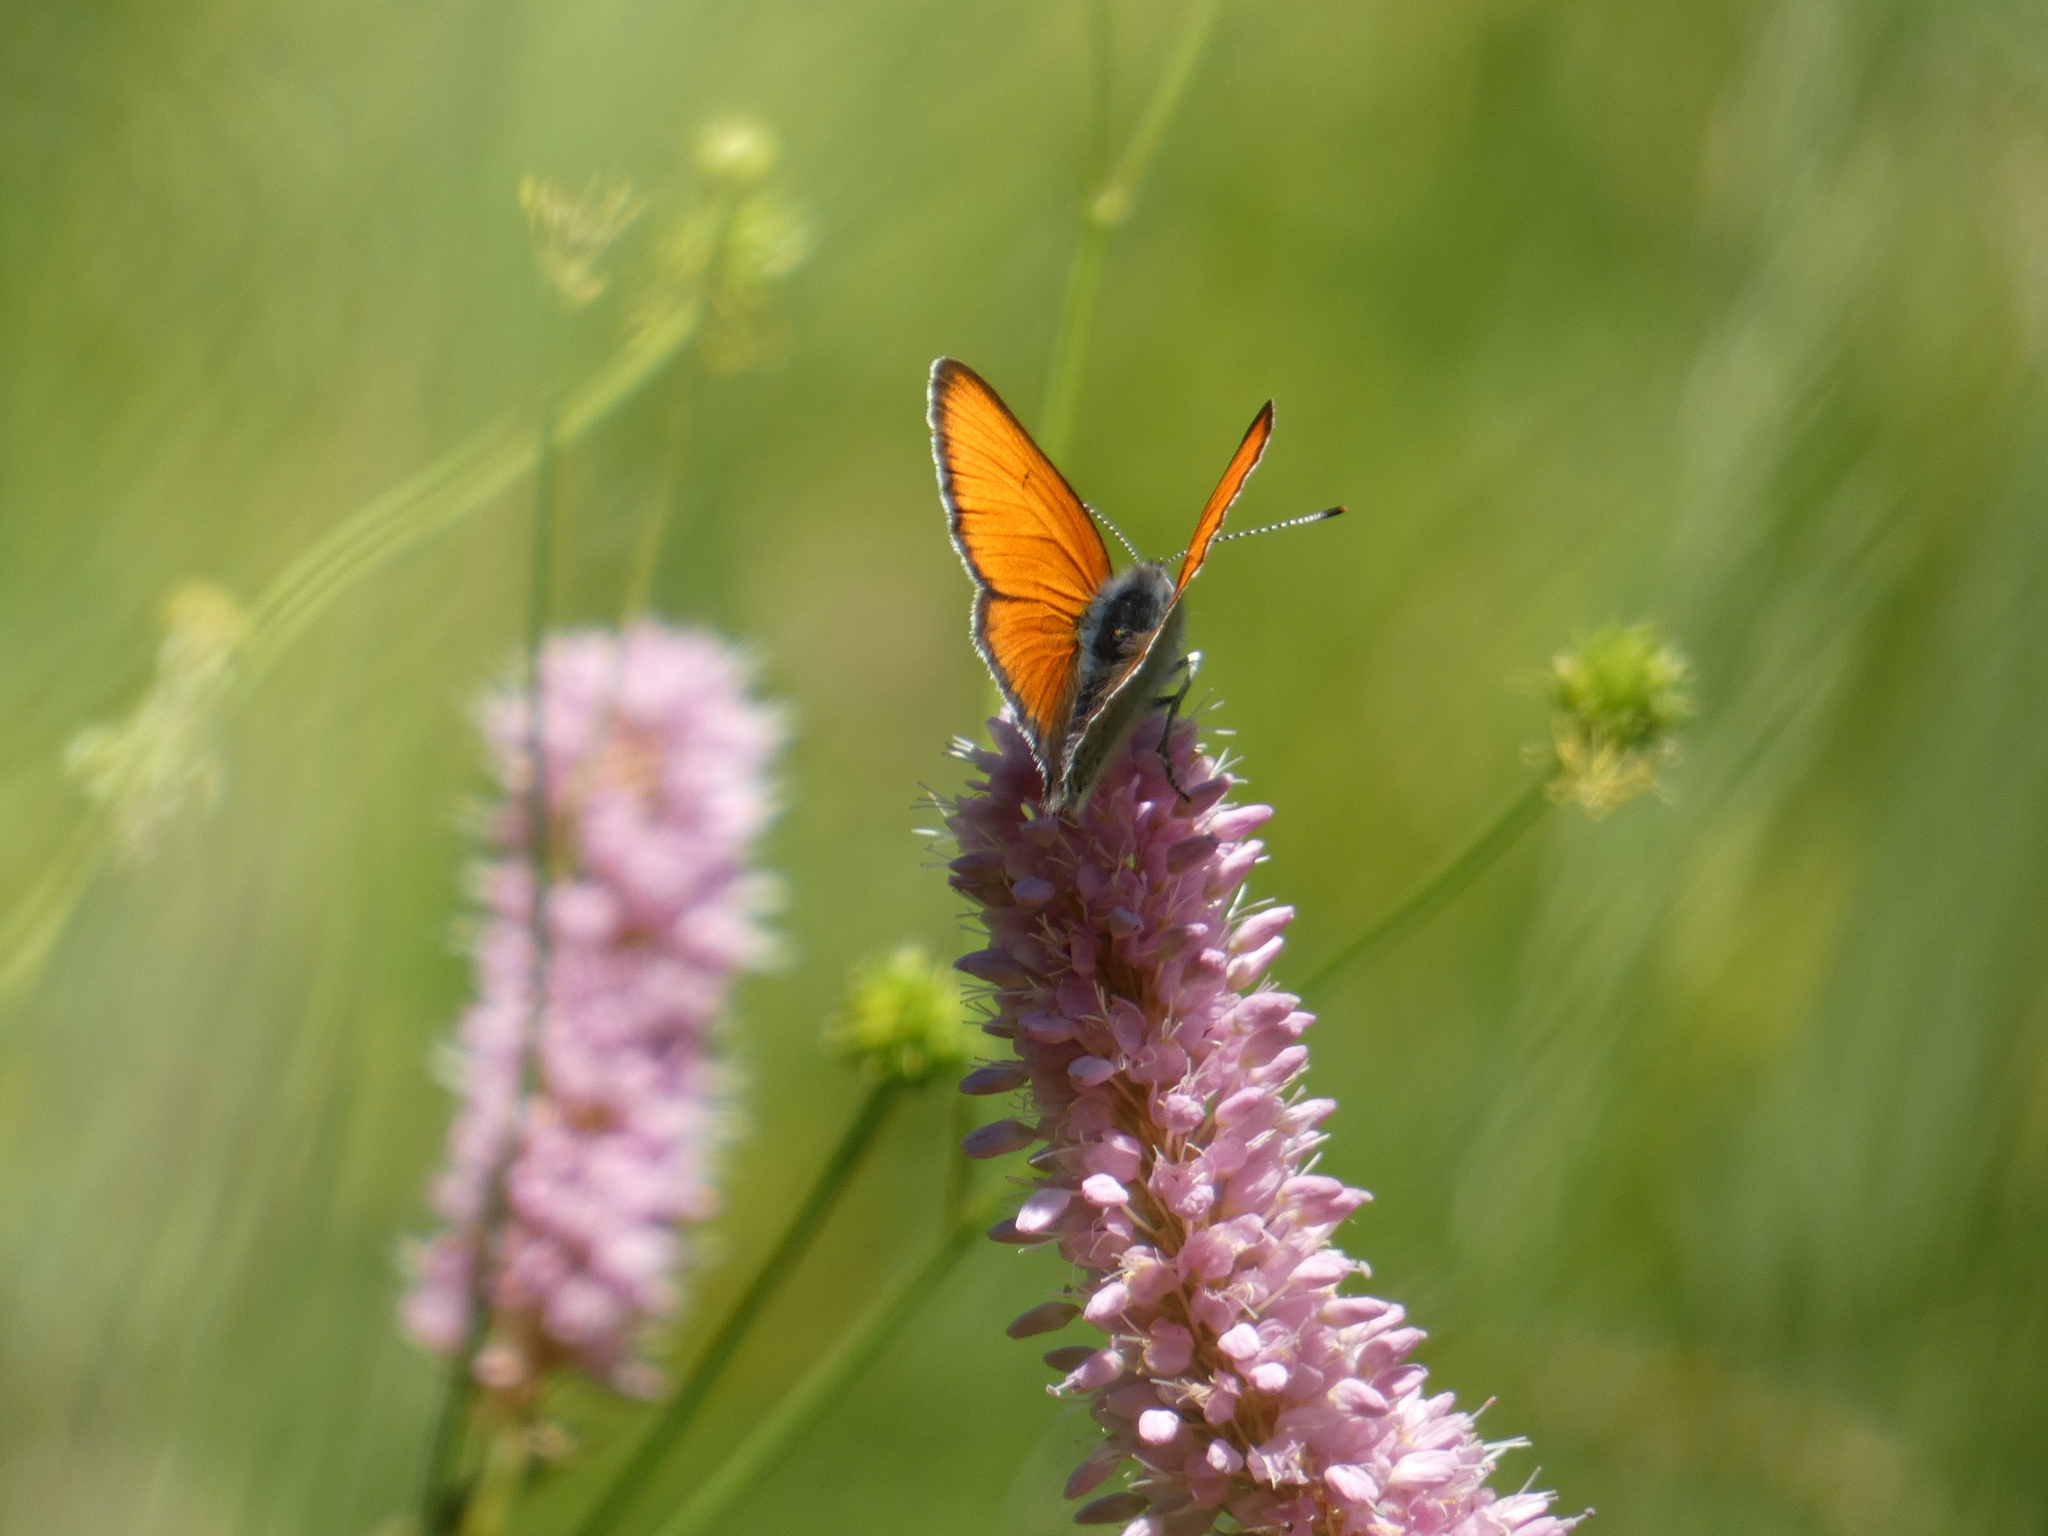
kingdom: Animalia
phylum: Arthropoda
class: Insecta
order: Lepidoptera
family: Lycaenidae
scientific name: Lycaenidae
